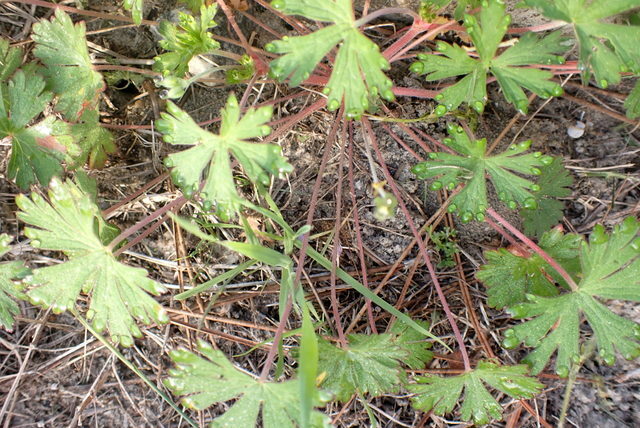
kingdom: Plantae
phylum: Tracheophyta
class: Magnoliopsida
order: Geraniales
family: Geraniaceae
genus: Geranium
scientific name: Geranium carolinianum
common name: Carolina crane's-bill
